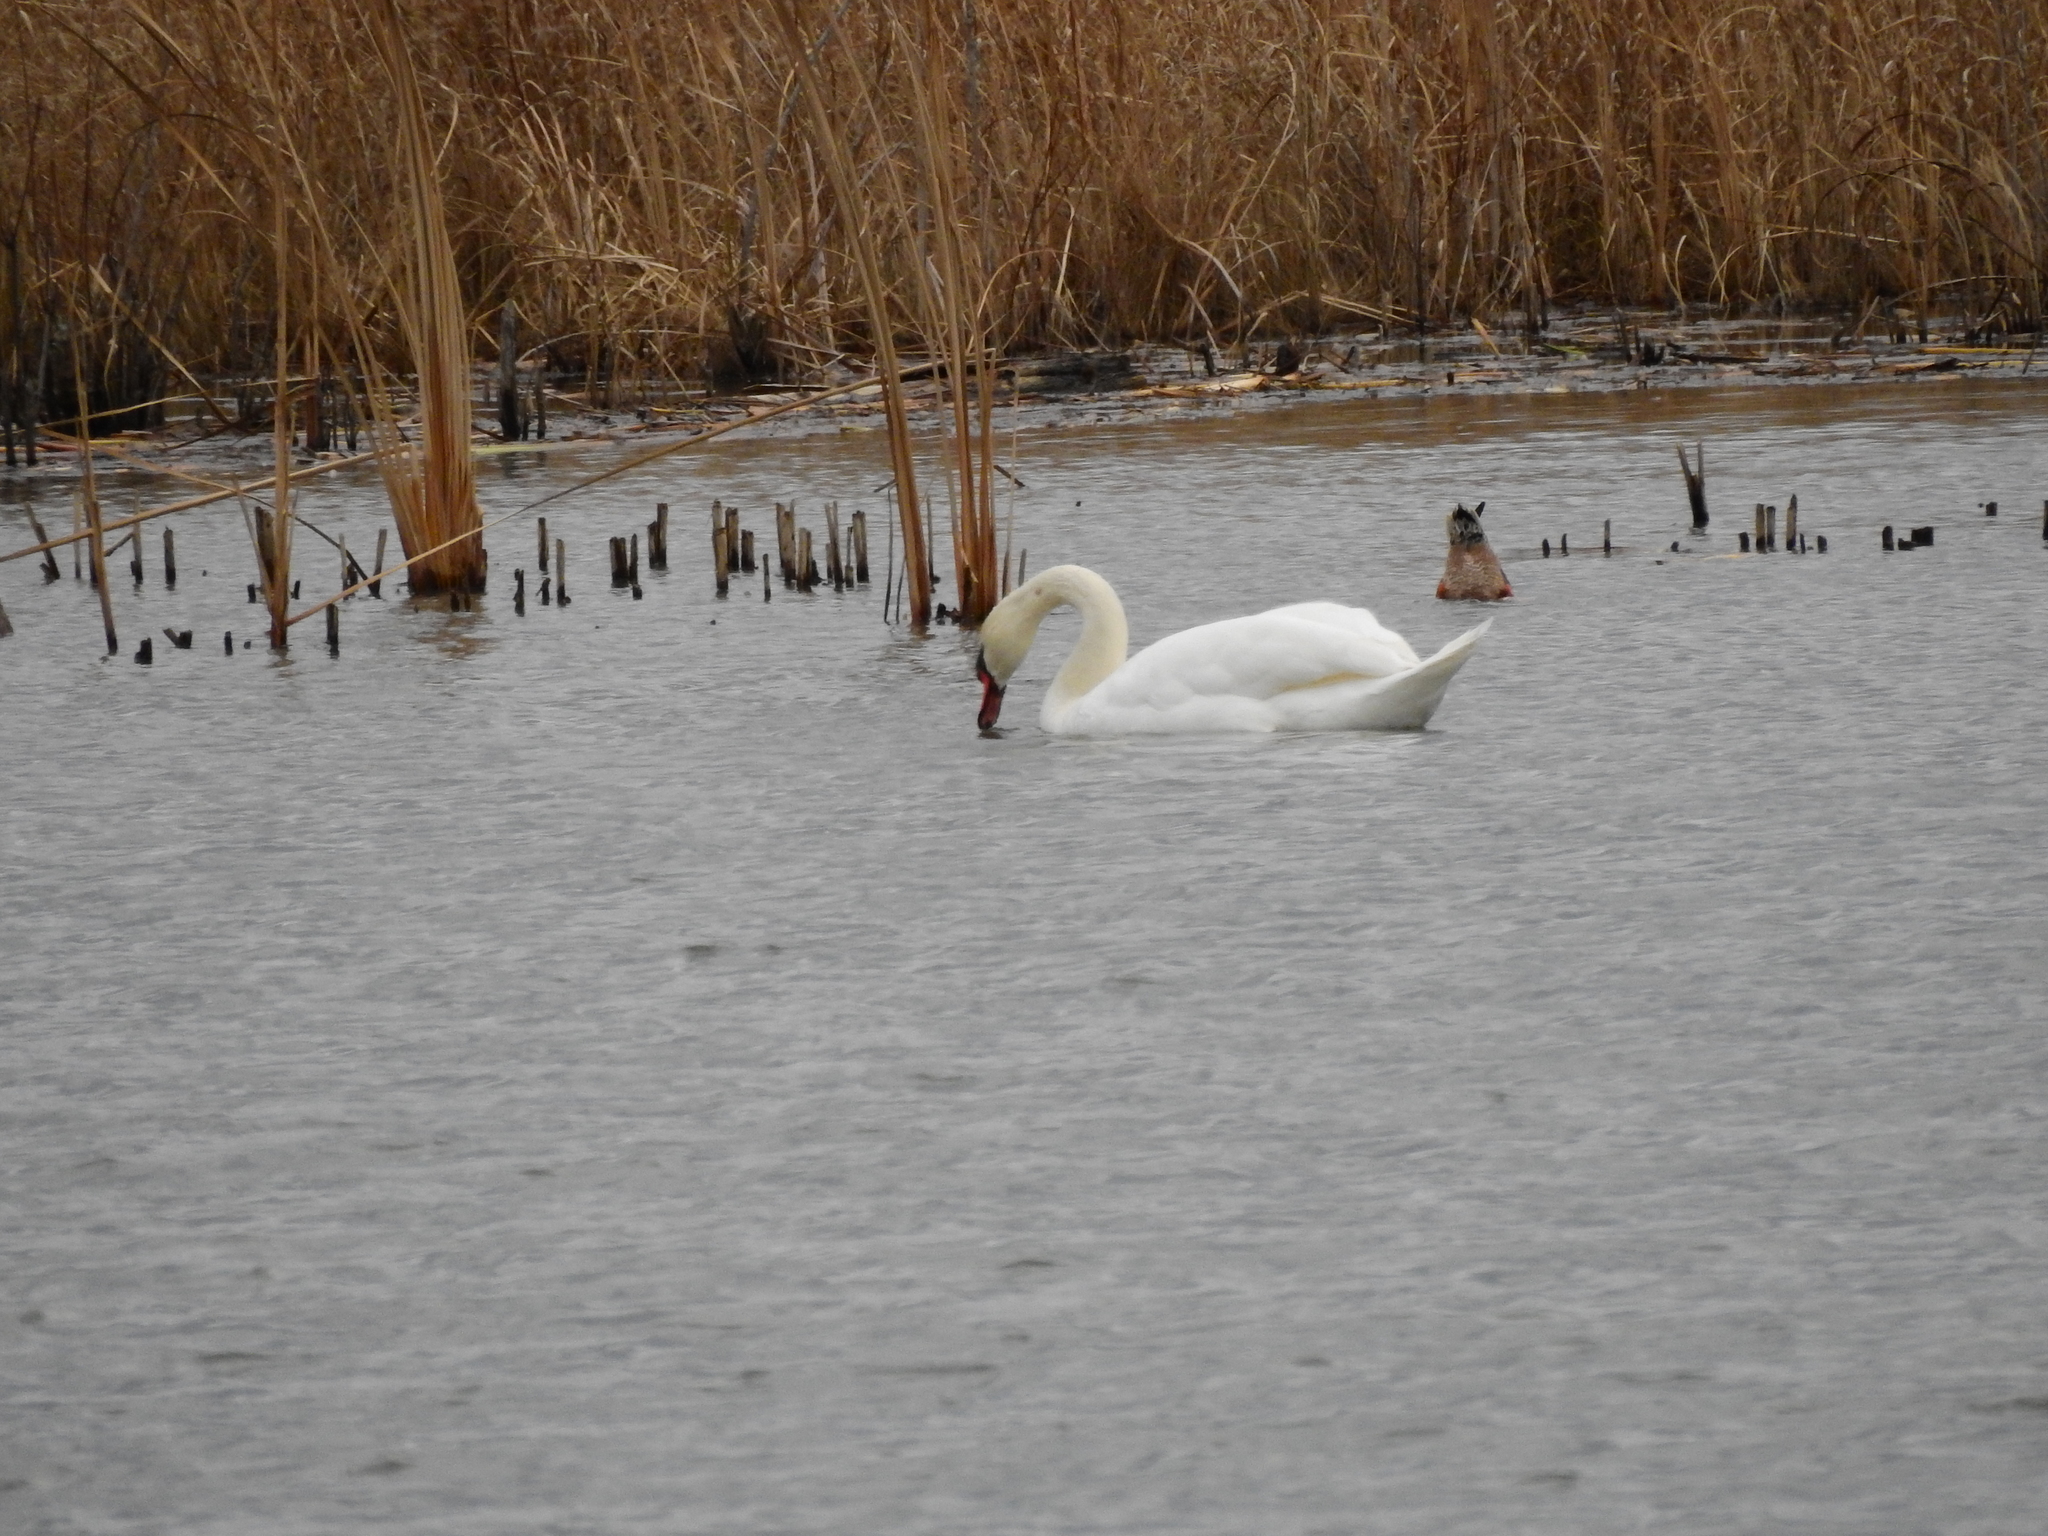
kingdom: Animalia
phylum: Chordata
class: Aves
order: Anseriformes
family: Anatidae
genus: Cygnus
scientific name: Cygnus olor
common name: Mute swan
